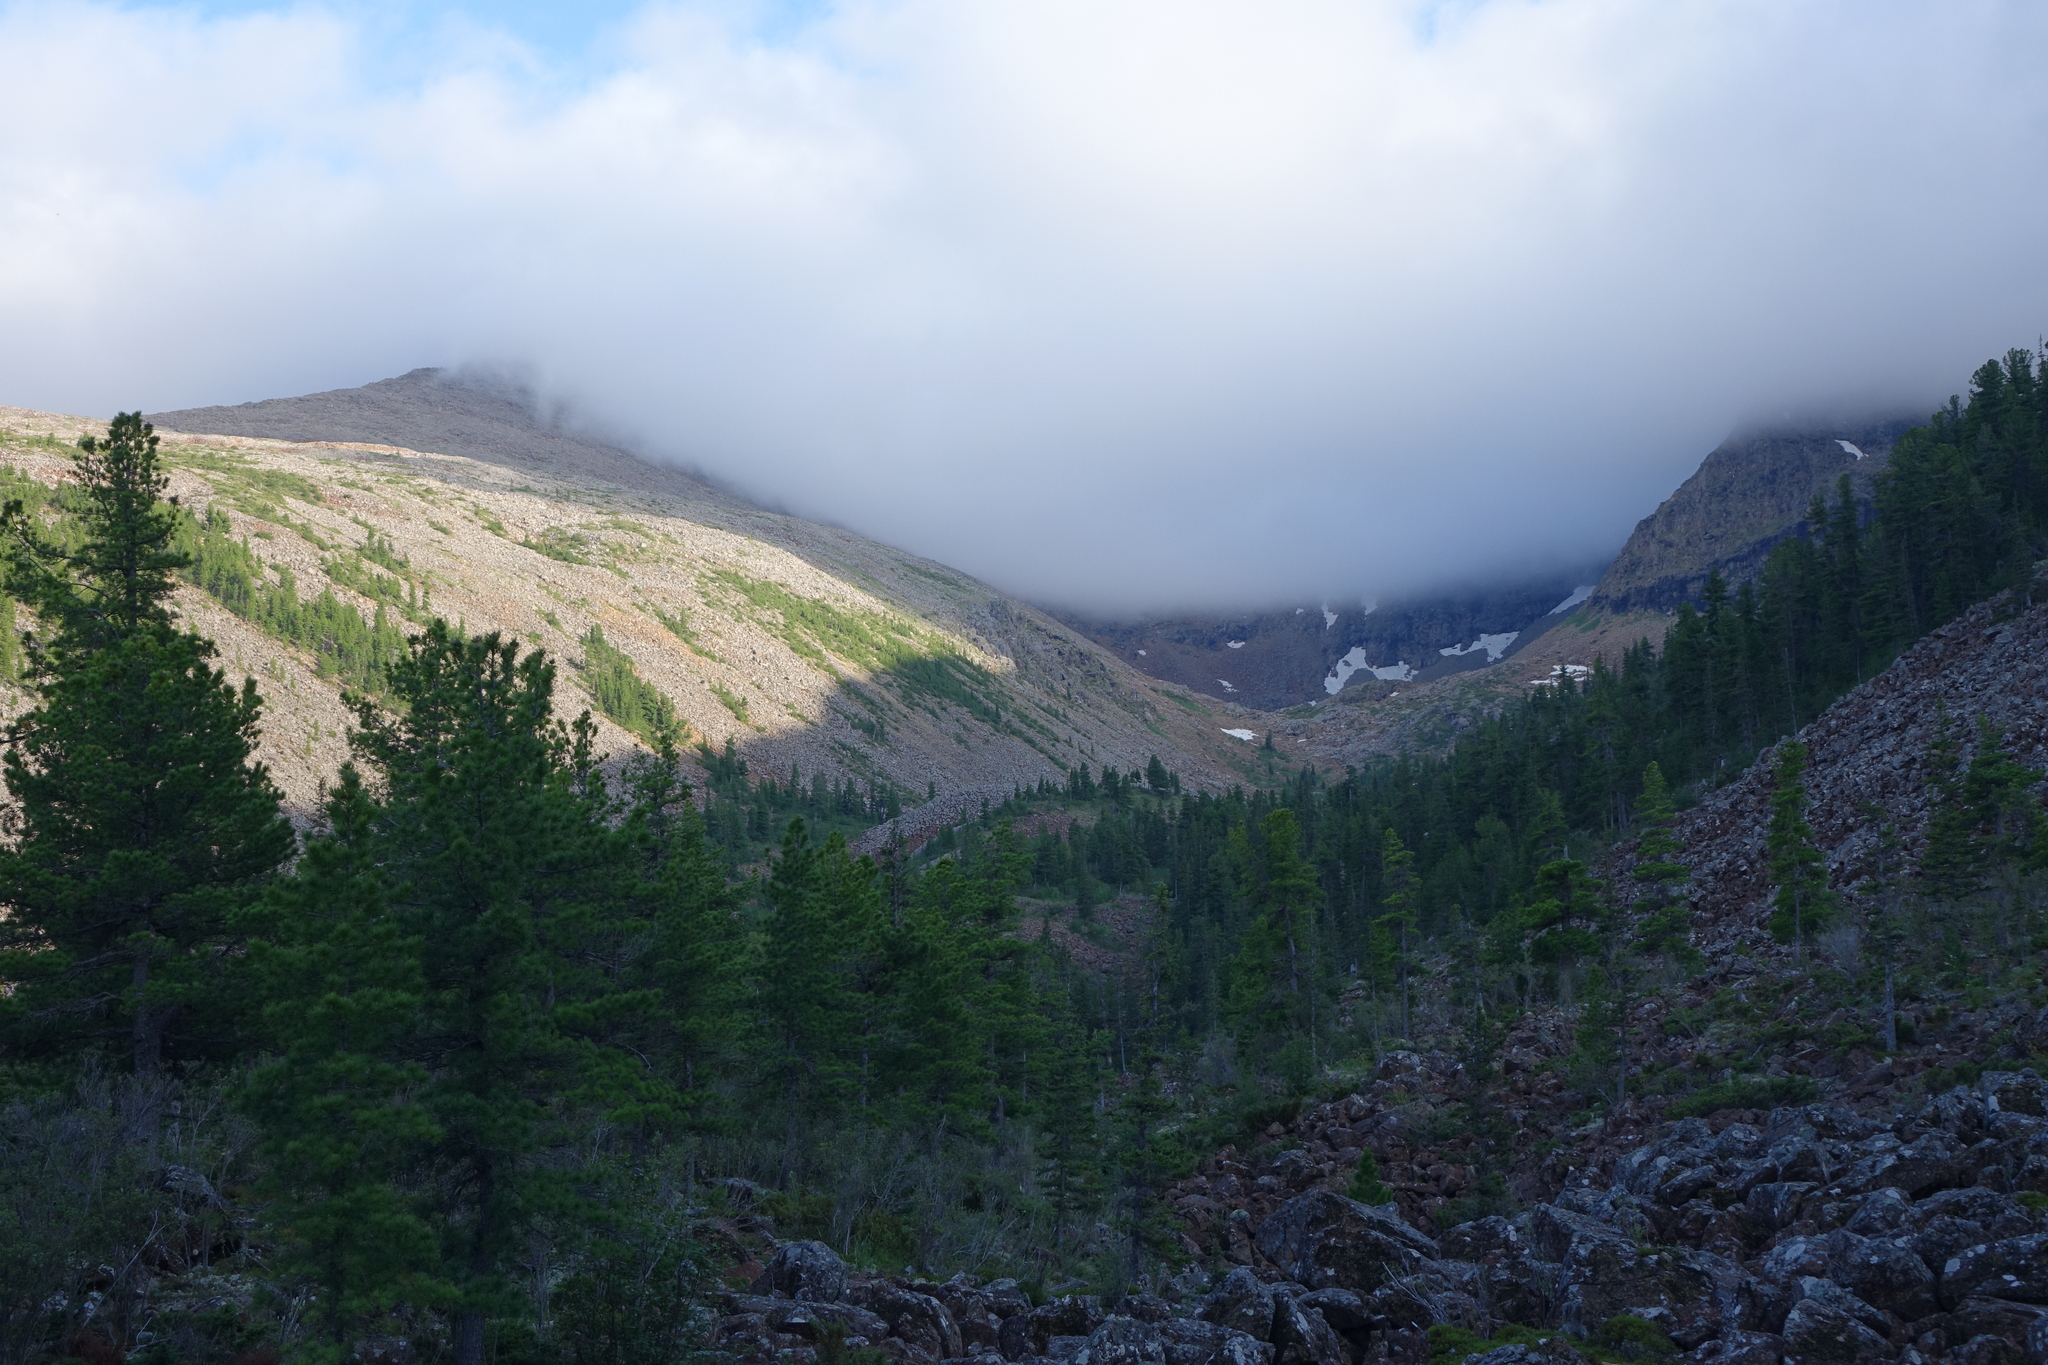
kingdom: Plantae
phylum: Tracheophyta
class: Pinopsida
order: Pinales
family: Pinaceae
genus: Pinus
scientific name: Pinus sibirica
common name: Siberian pine
